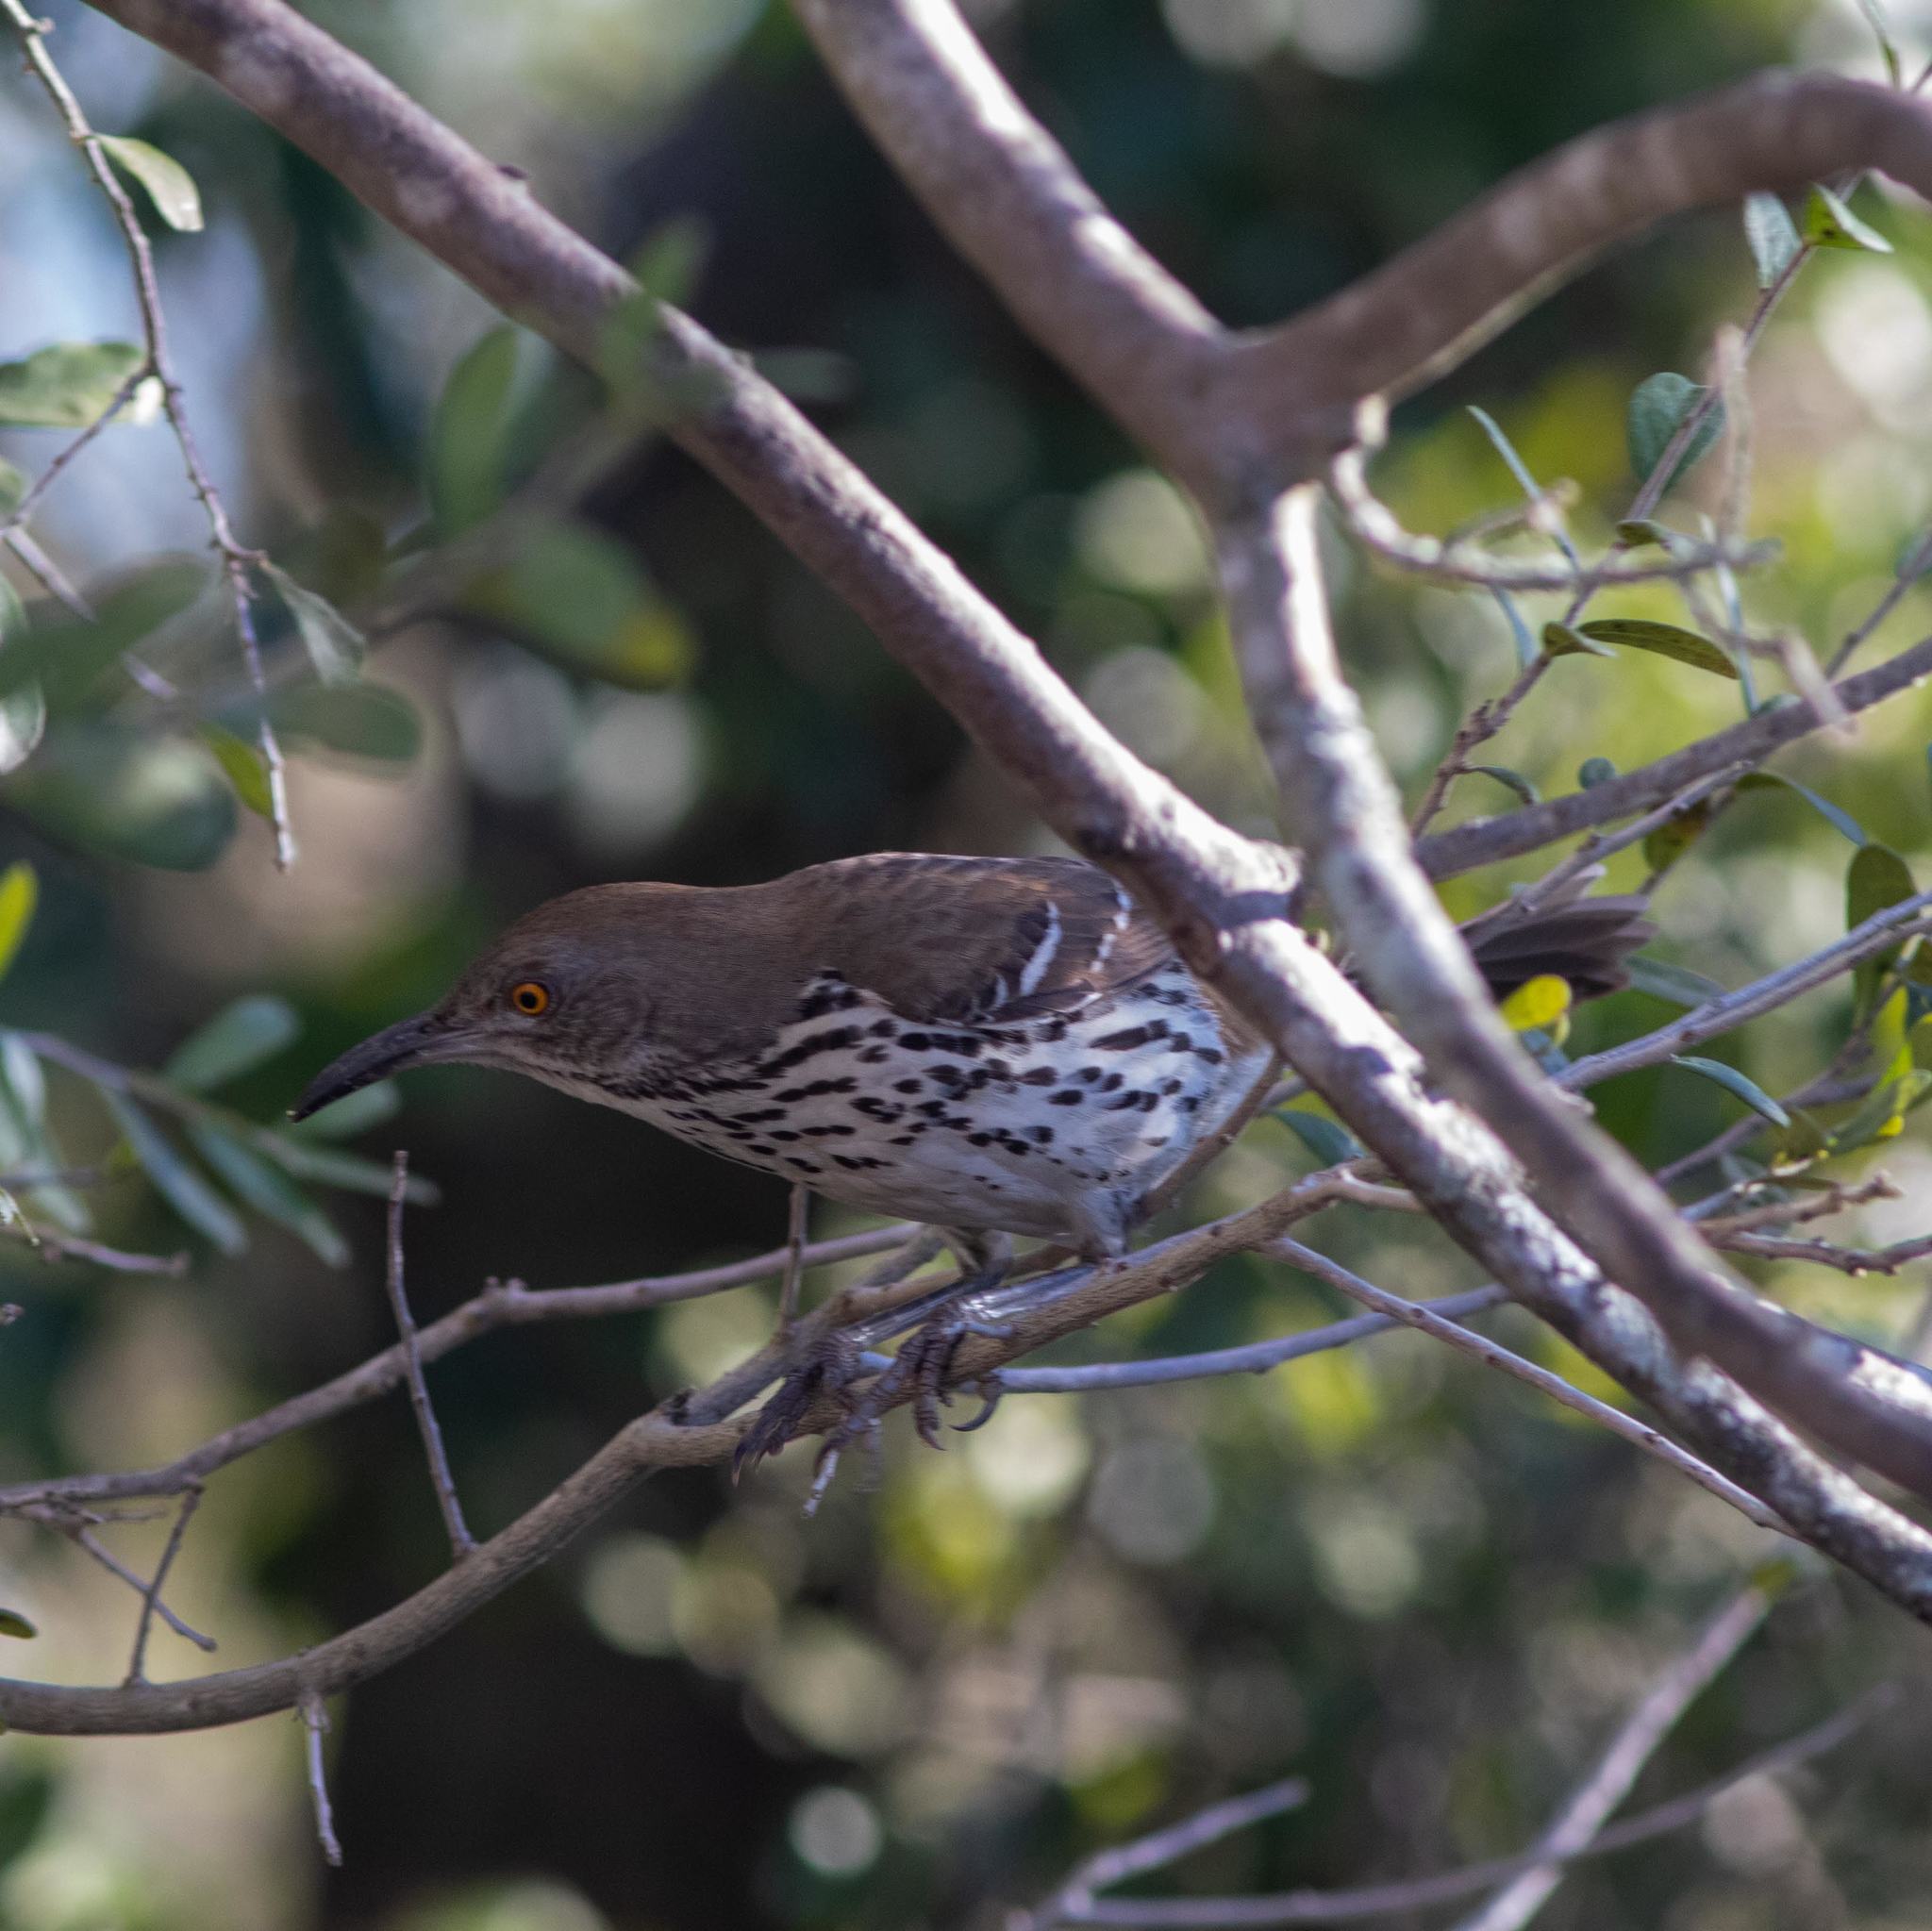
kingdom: Animalia
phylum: Chordata
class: Aves
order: Passeriformes
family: Mimidae
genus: Toxostoma
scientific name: Toxostoma longirostre
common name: Long-billed thrasher
